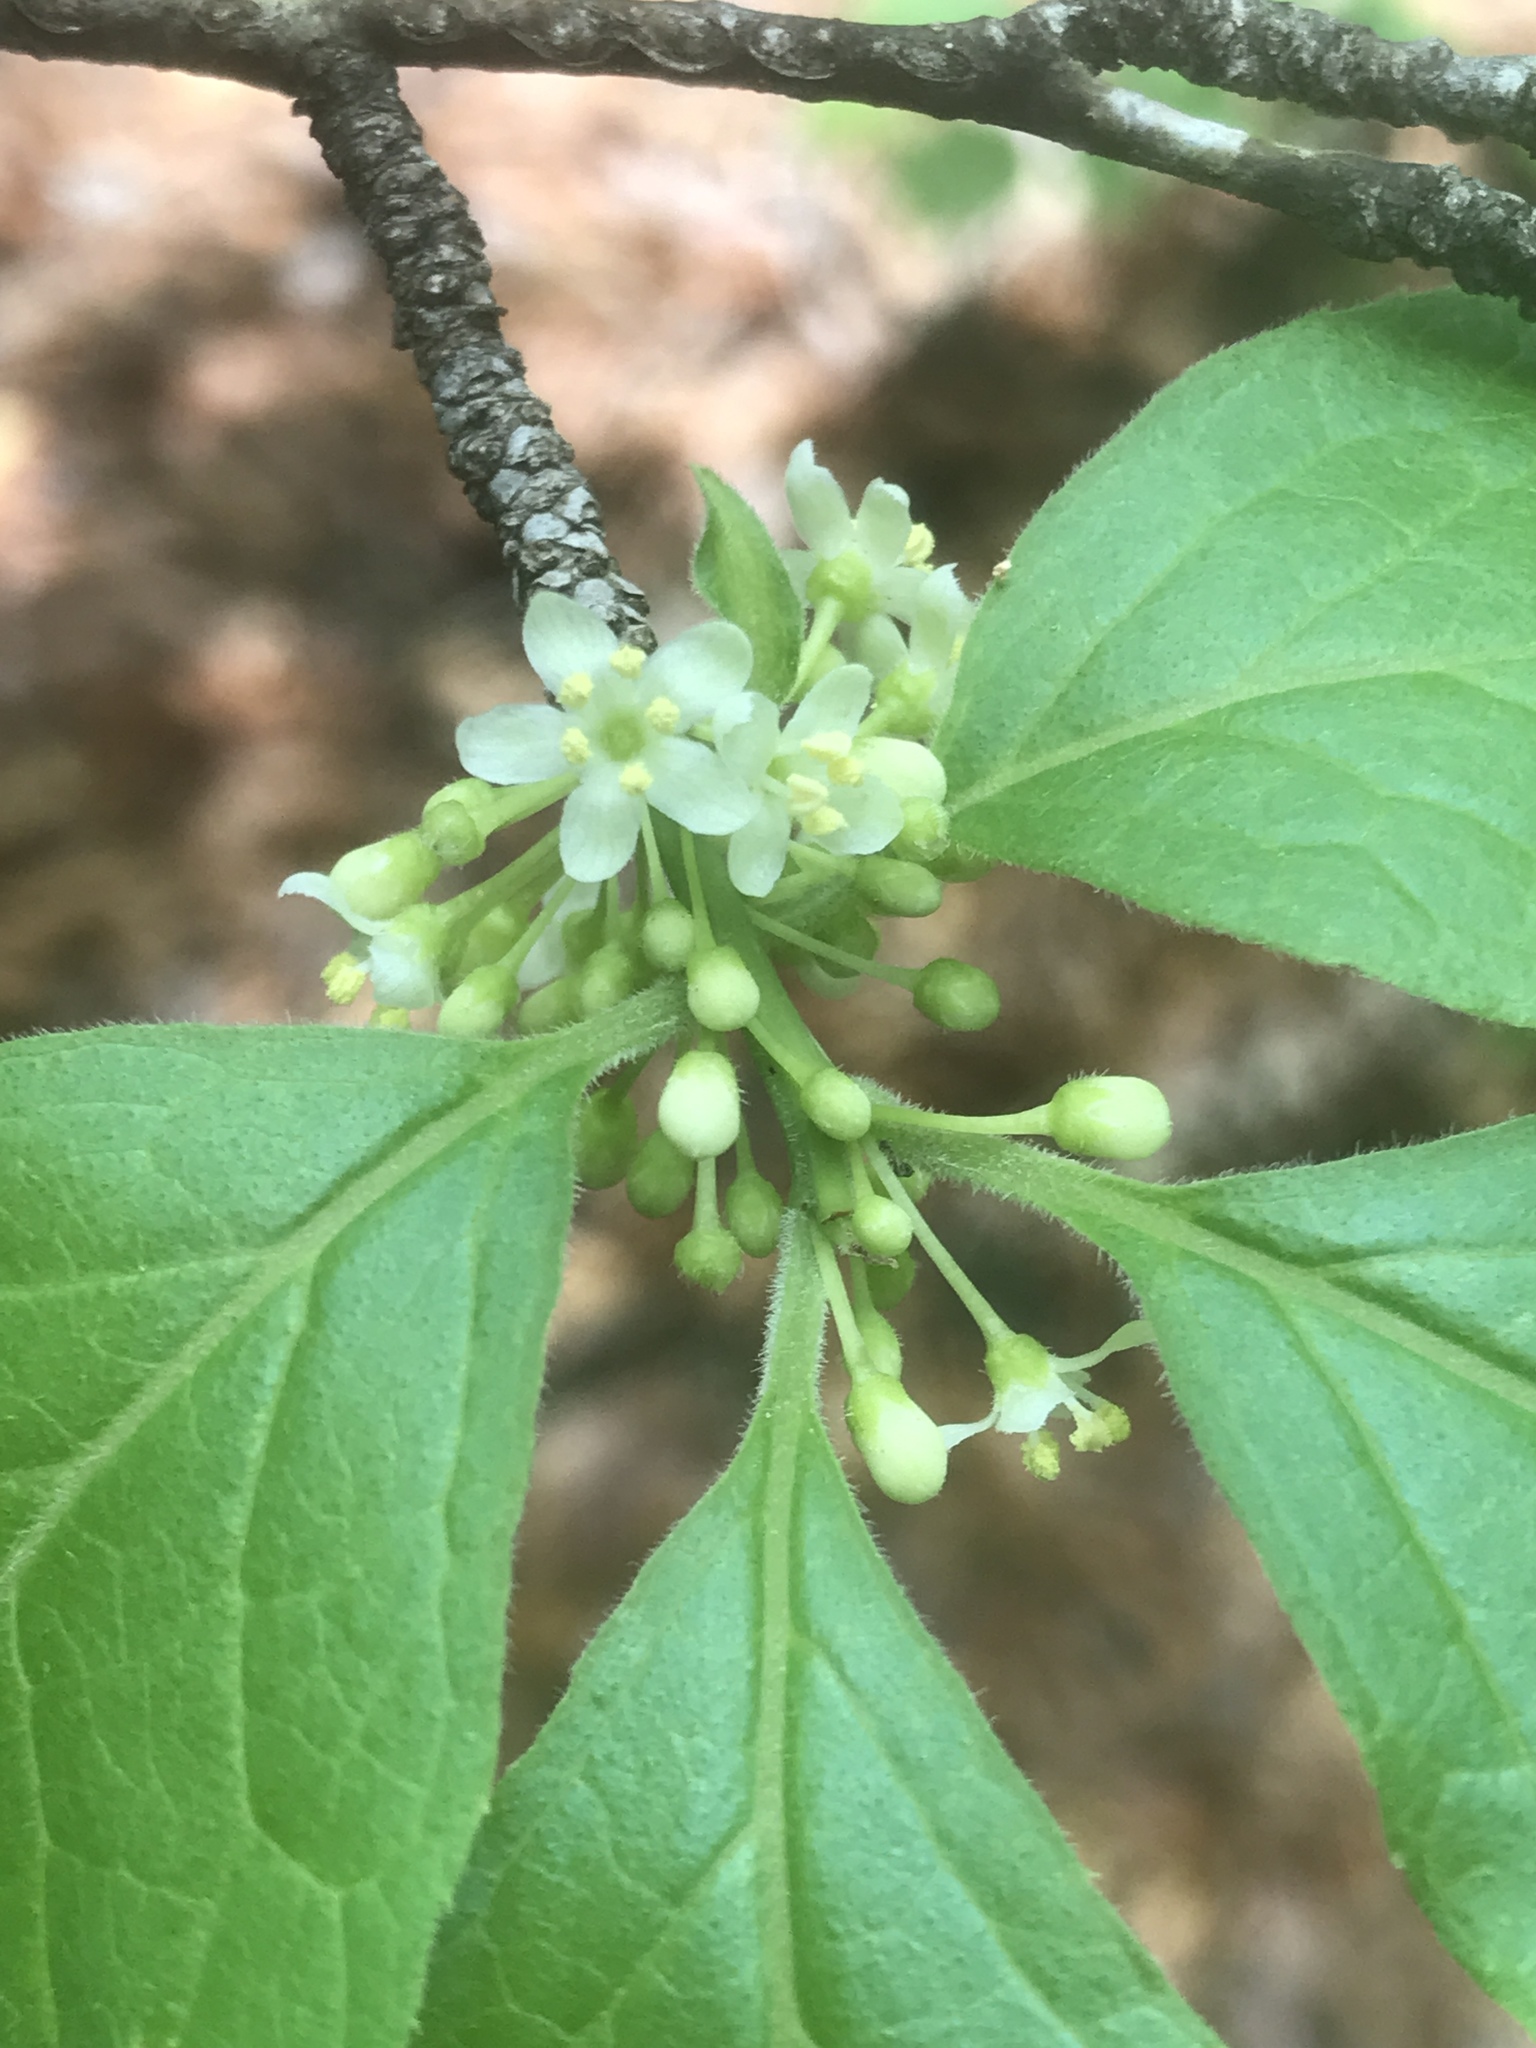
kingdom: Plantae
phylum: Tracheophyta
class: Magnoliopsida
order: Aquifoliales
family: Aquifoliaceae
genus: Ilex
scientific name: Ilex ambigua
